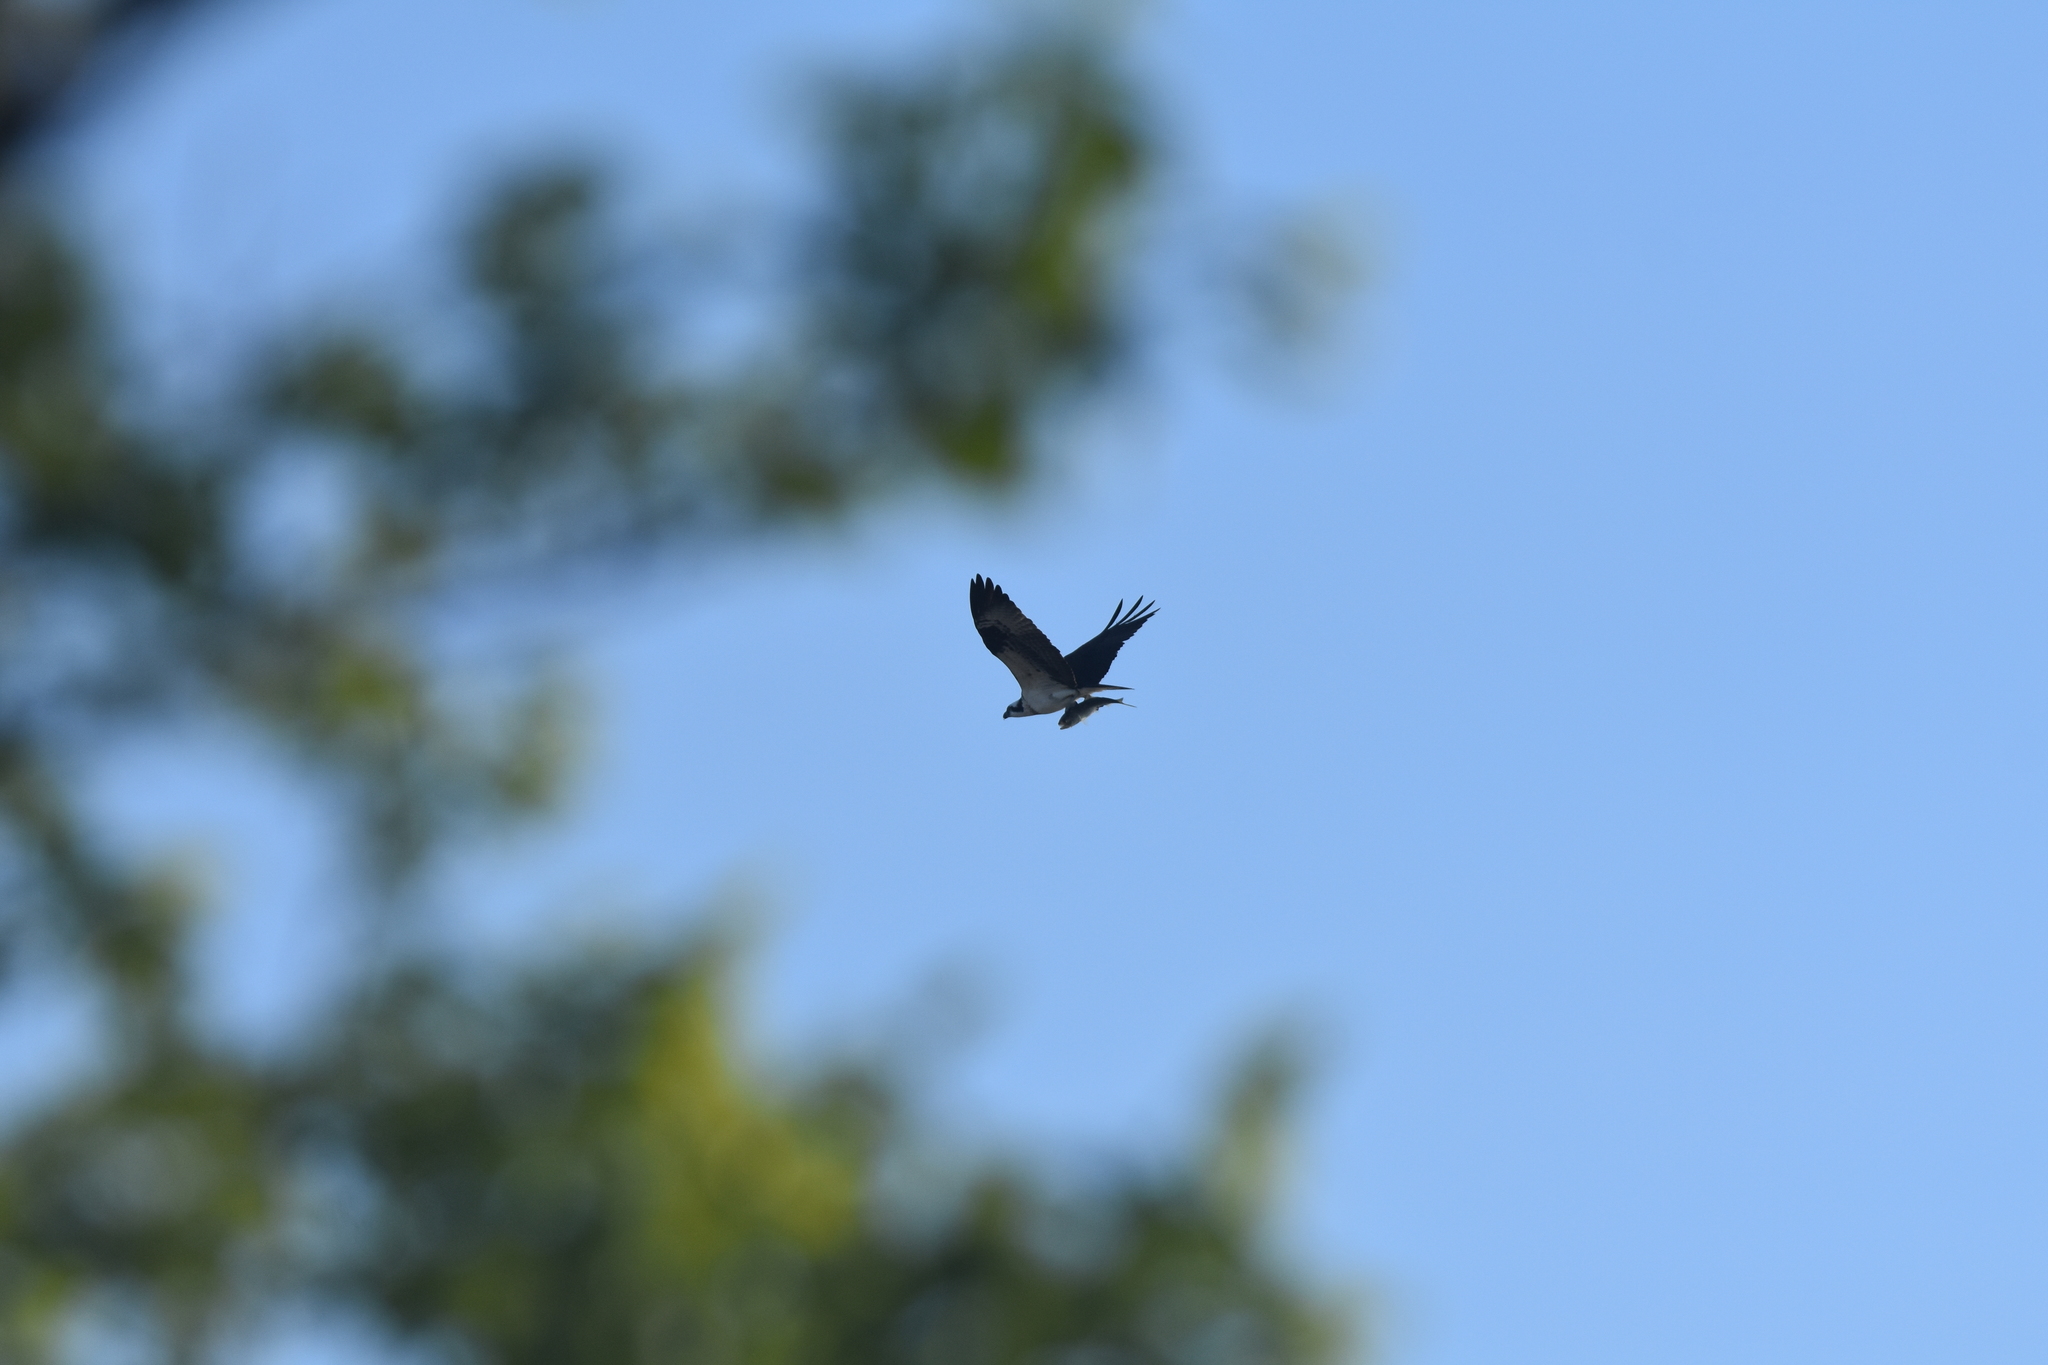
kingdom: Animalia
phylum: Chordata
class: Aves
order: Accipitriformes
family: Pandionidae
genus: Pandion
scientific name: Pandion haliaetus
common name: Osprey
